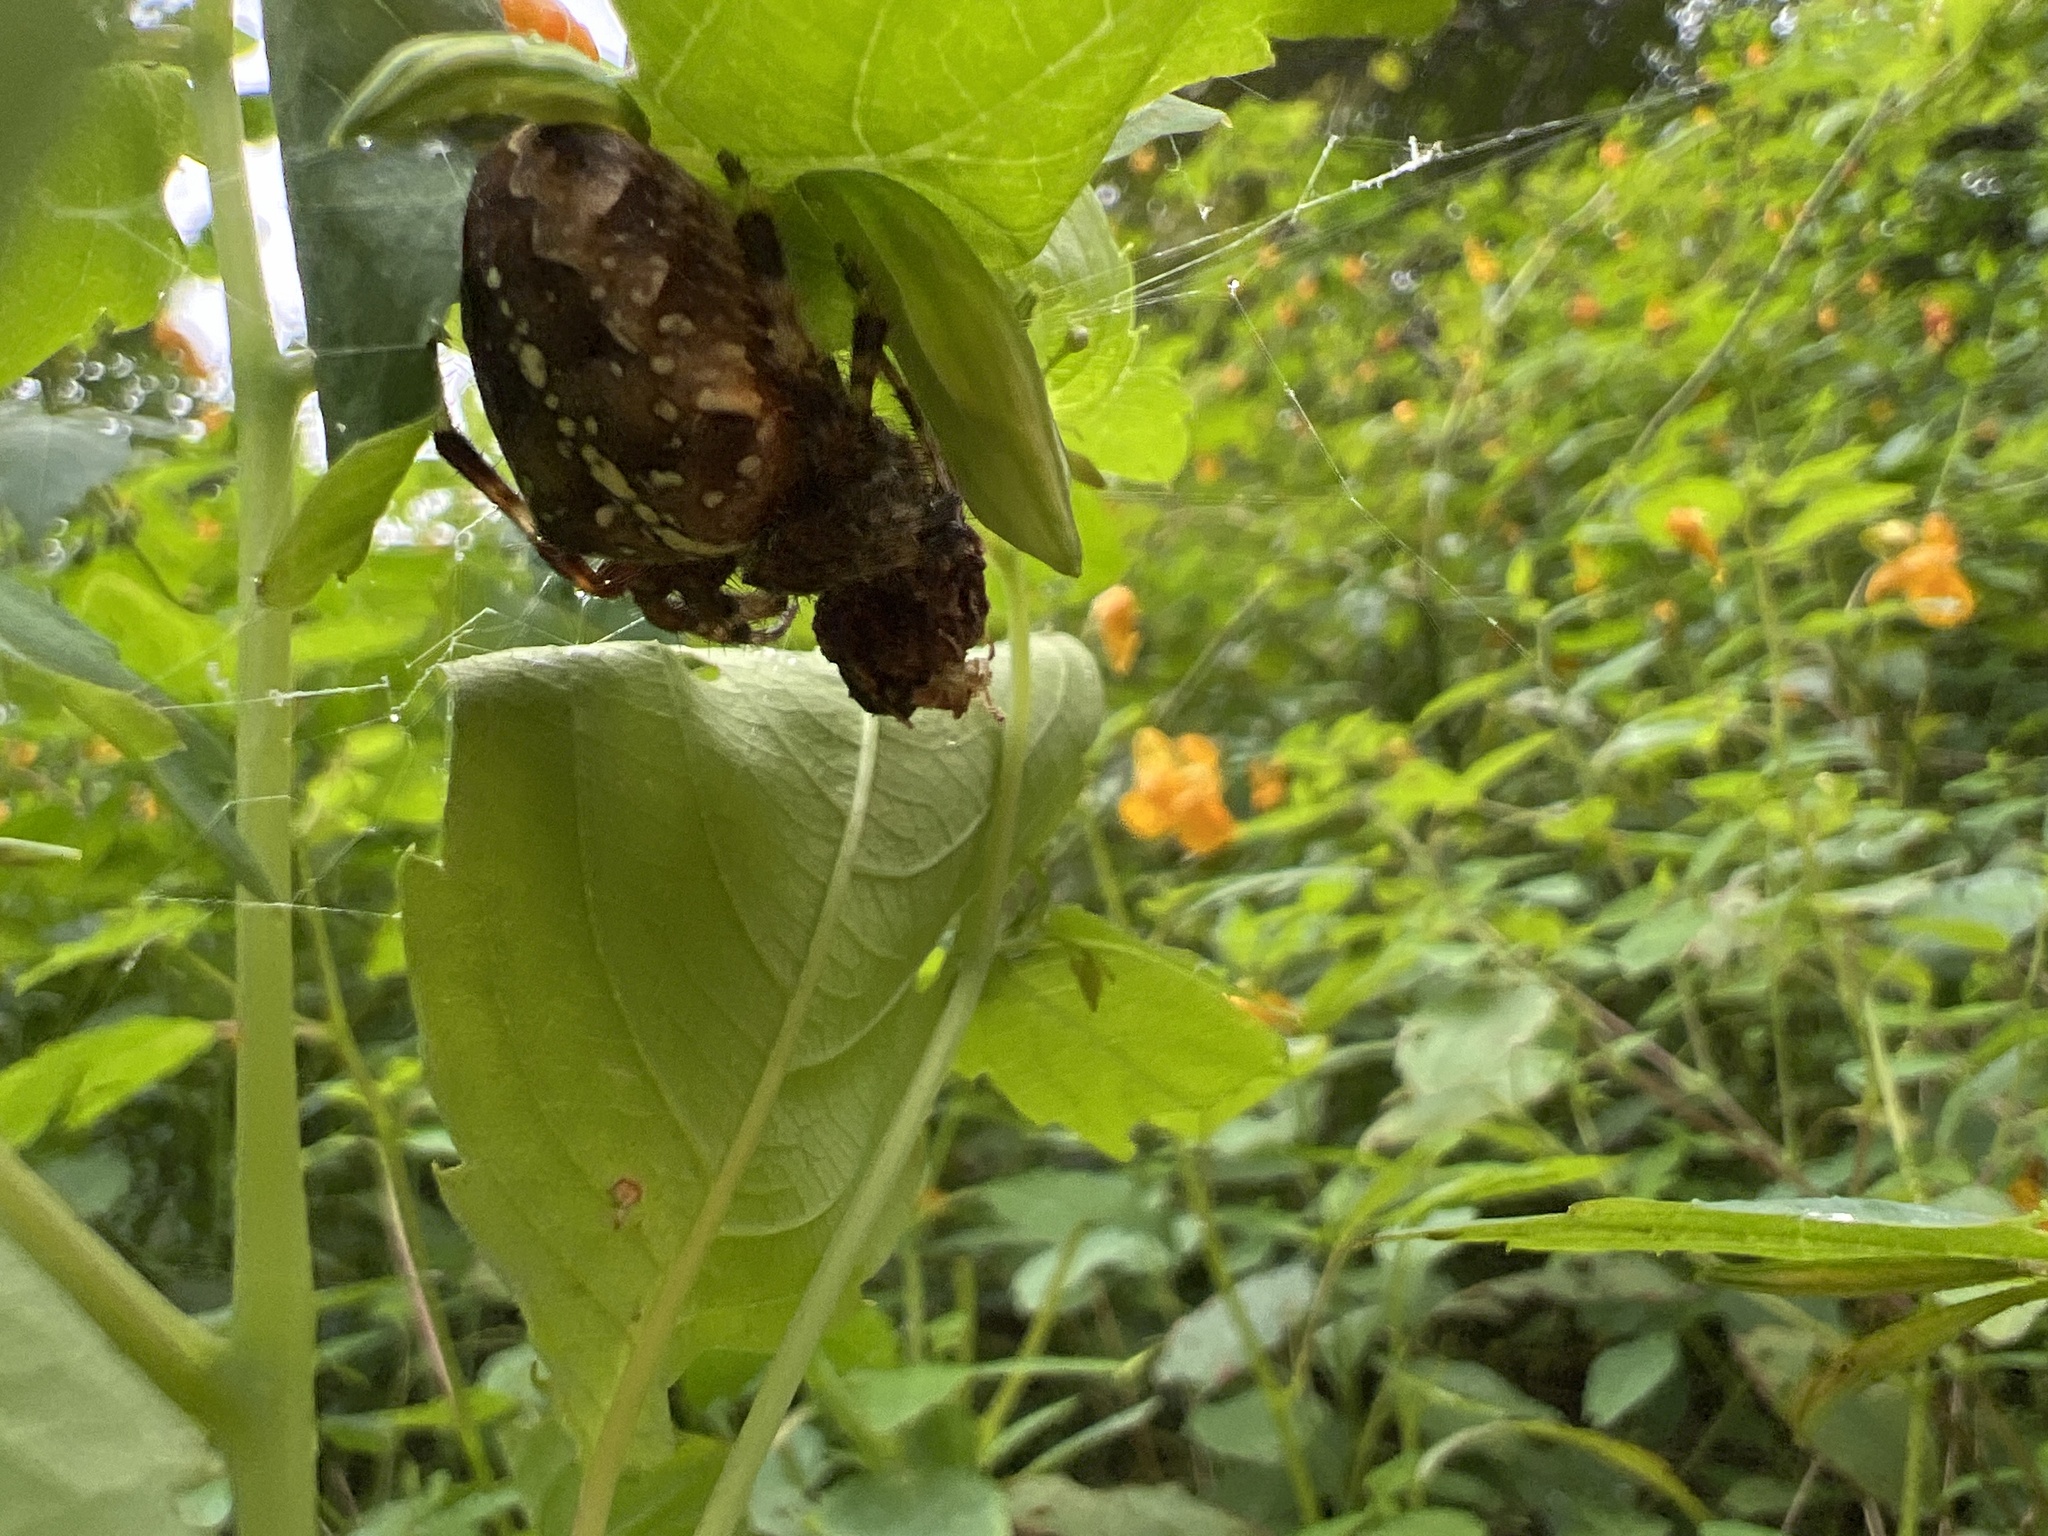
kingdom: Animalia
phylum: Arthropoda
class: Arachnida
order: Araneae
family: Araneidae
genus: Araneus
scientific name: Araneus diadematus
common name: Cross orbweaver
